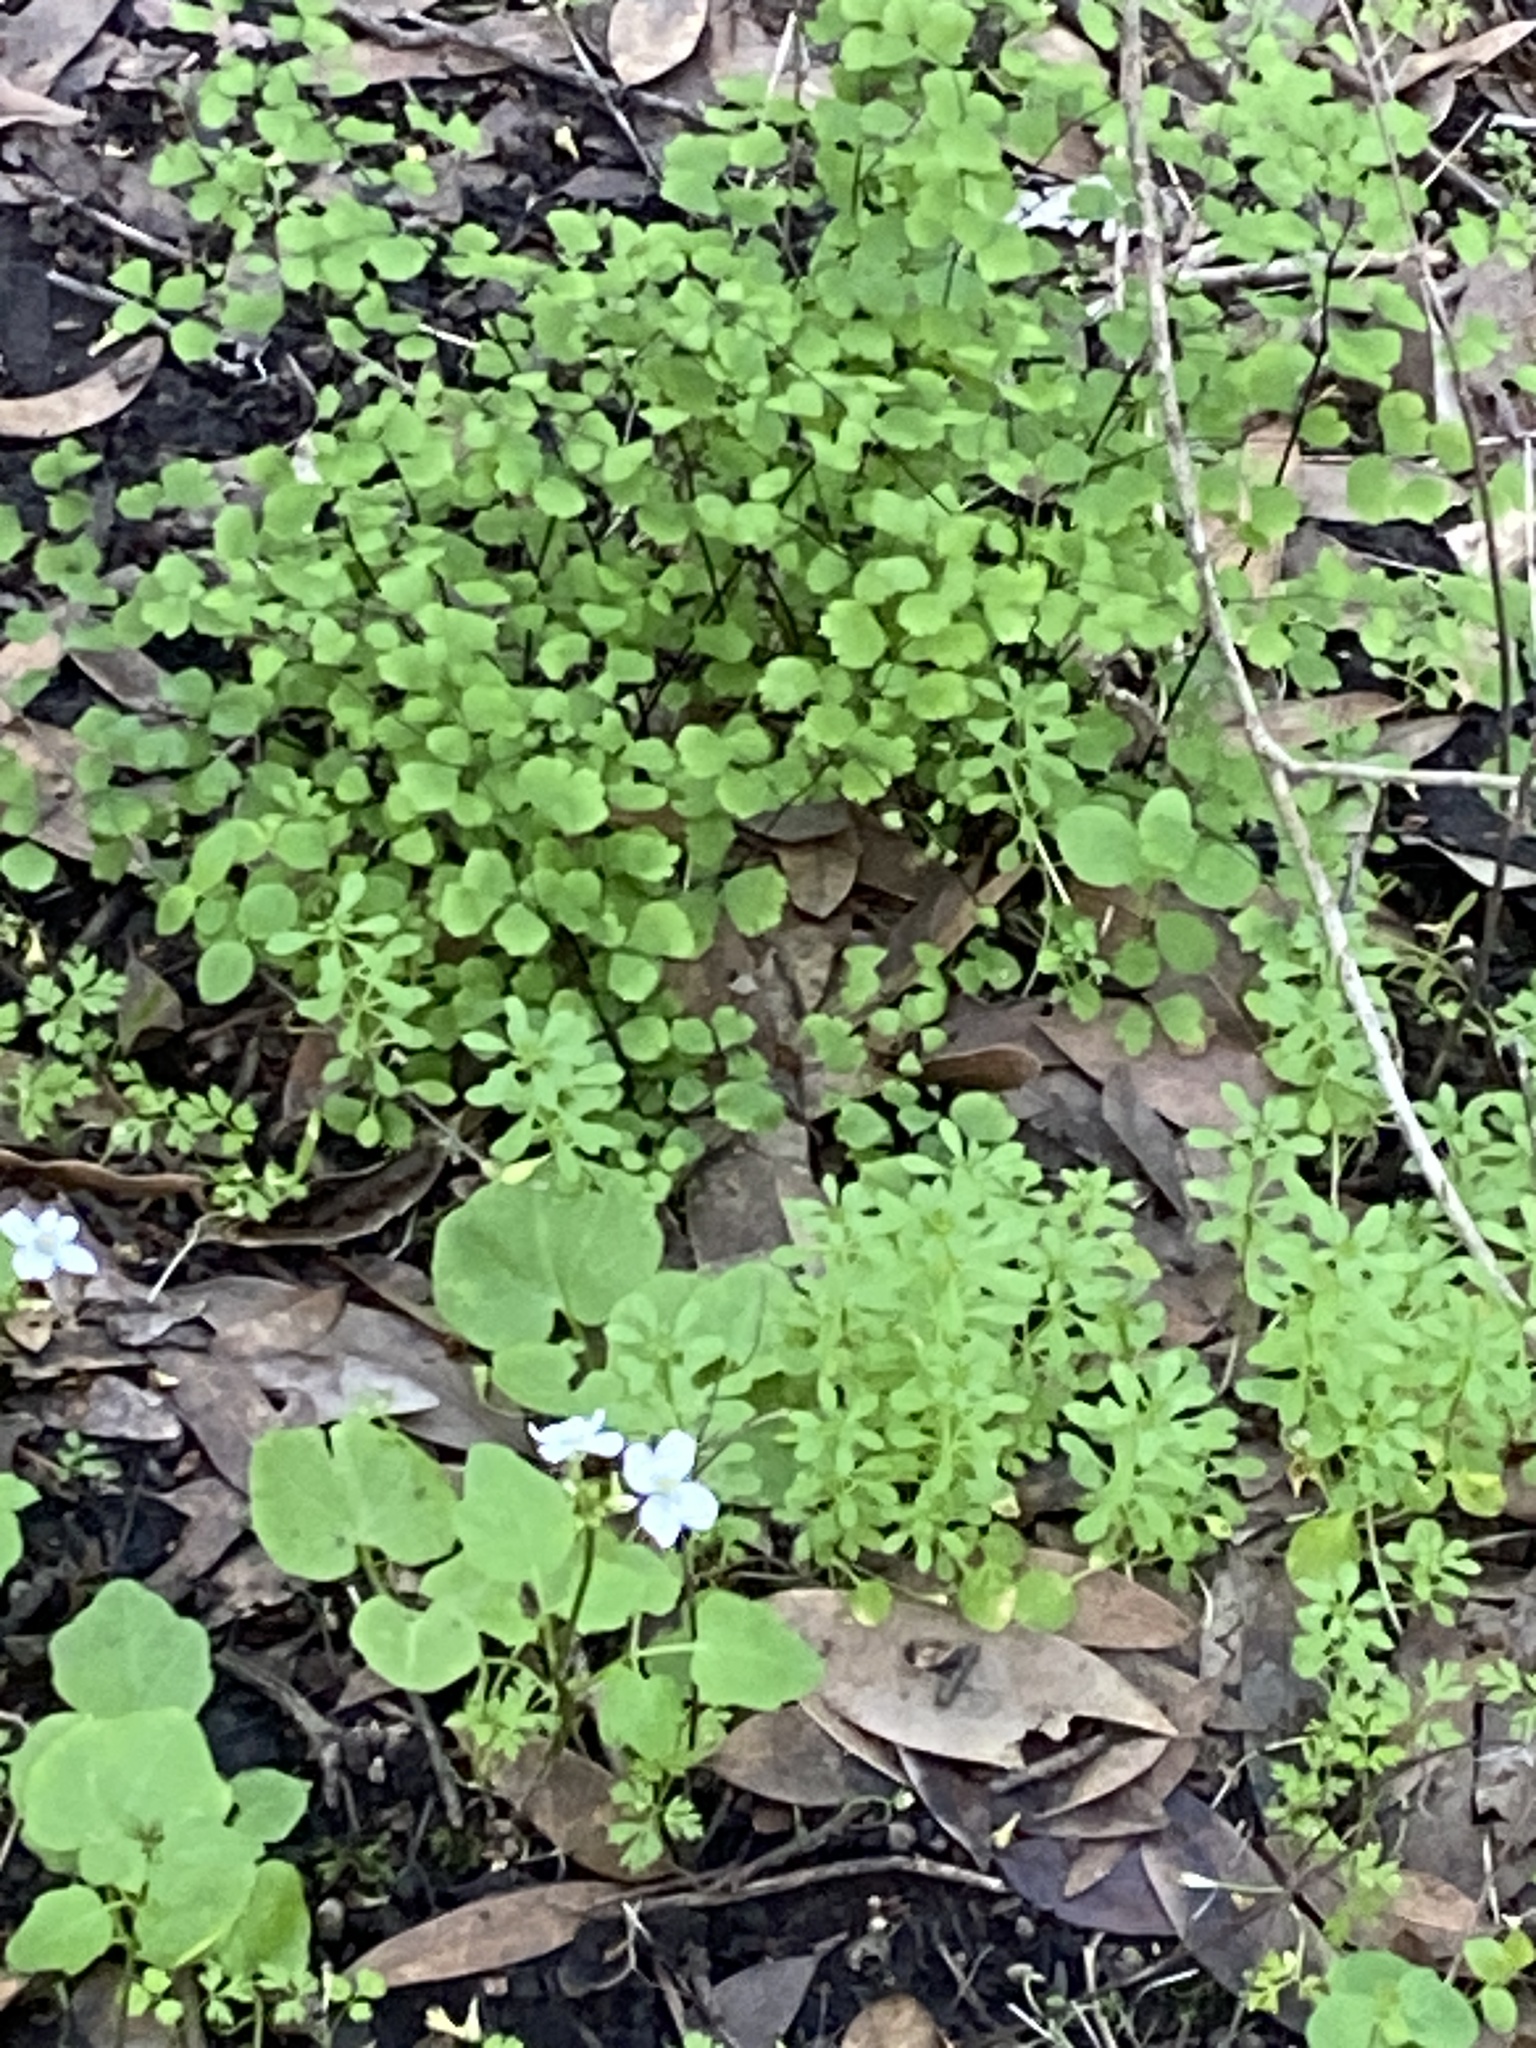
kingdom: Plantae
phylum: Tracheophyta
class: Polypodiopsida
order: Polypodiales
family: Pteridaceae
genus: Adiantum
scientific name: Adiantum jordanii
